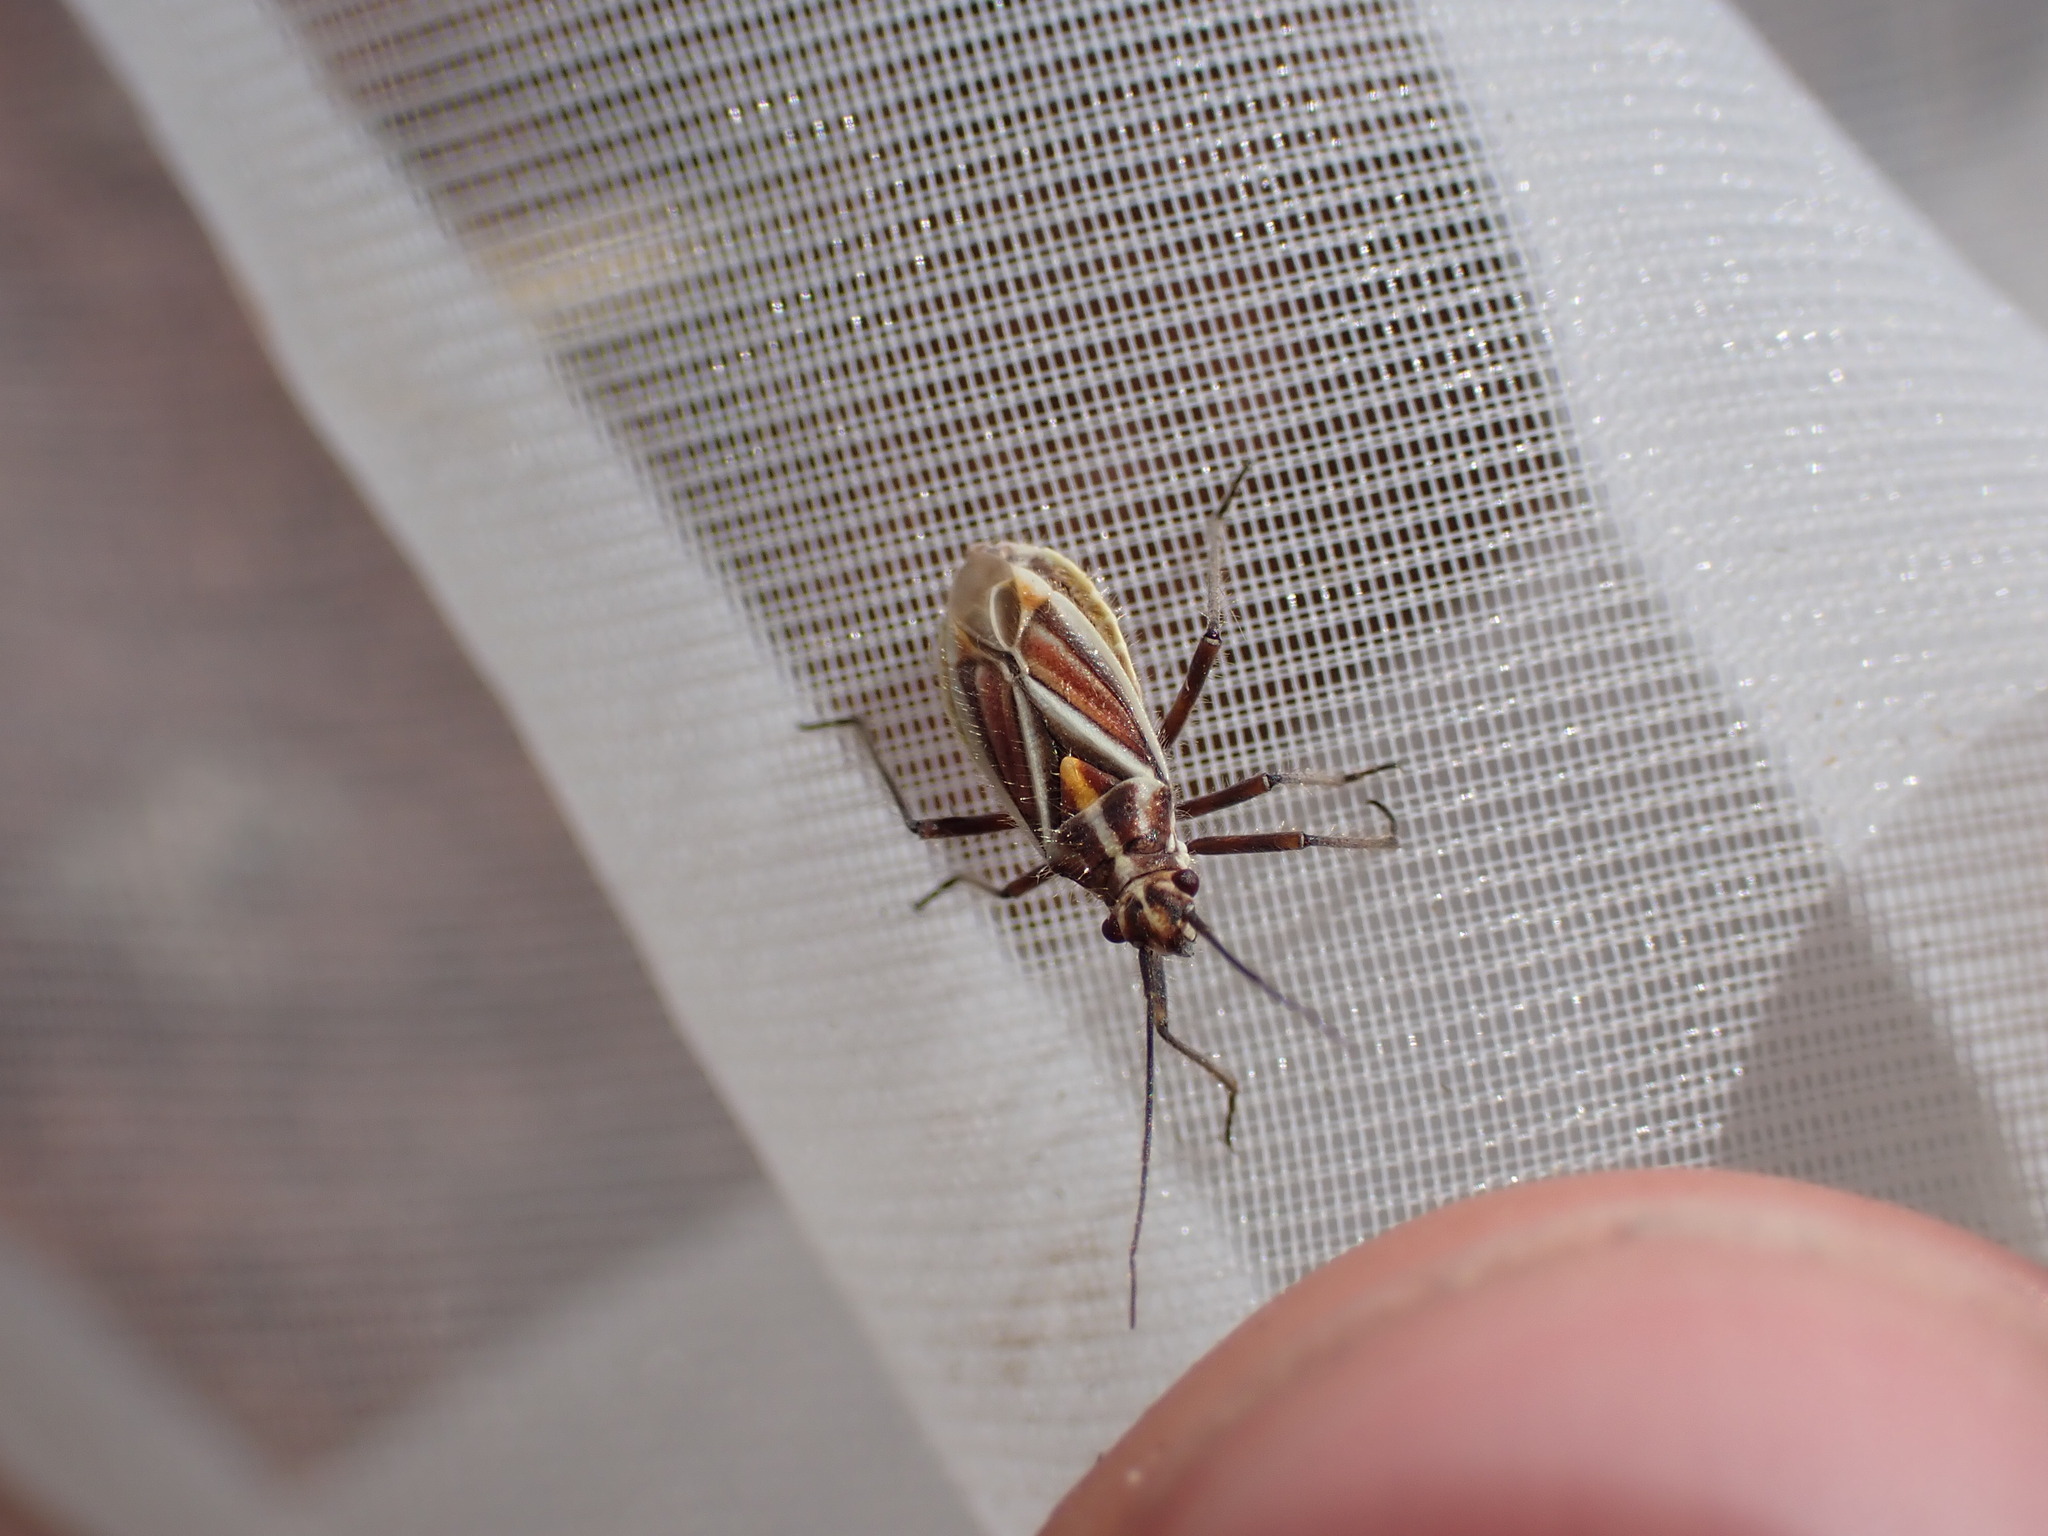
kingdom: Animalia
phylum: Arthropoda
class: Insecta
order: Hemiptera
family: Miridae
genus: Horistus
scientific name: Horistus orientalis
